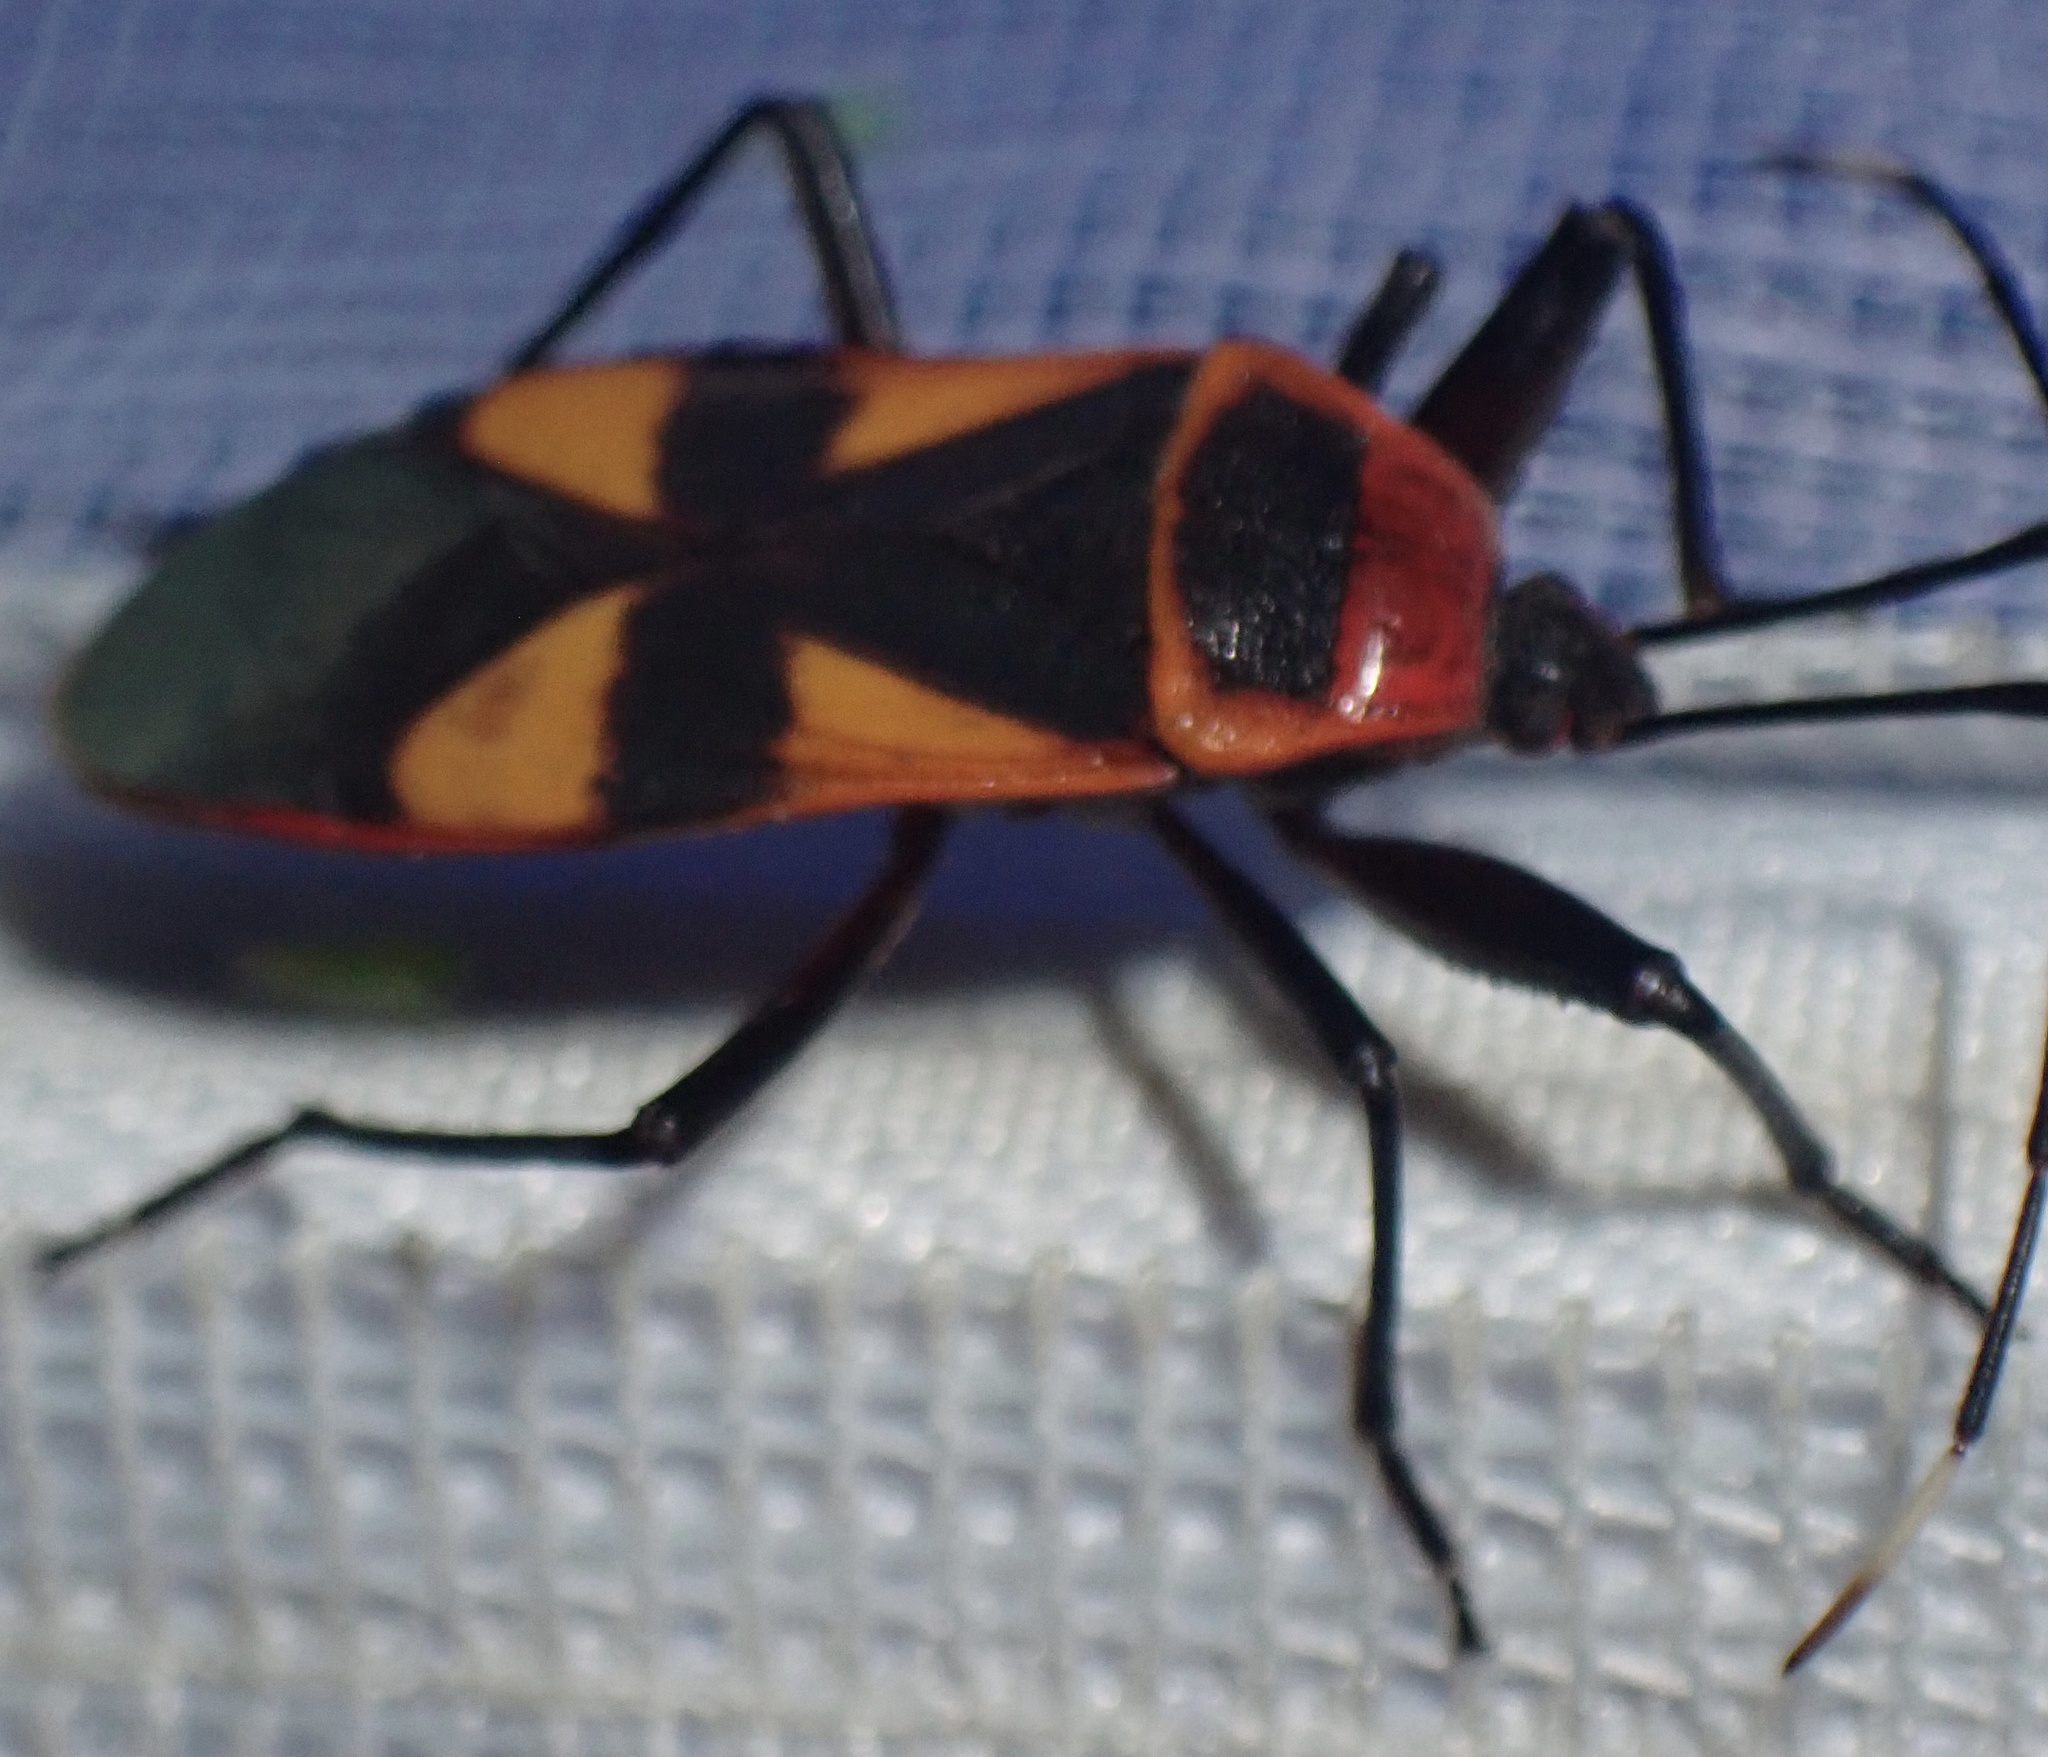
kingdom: Animalia
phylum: Arthropoda
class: Insecta
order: Hemiptera
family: Largidae
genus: Kmentia
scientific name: Kmentia festiva
